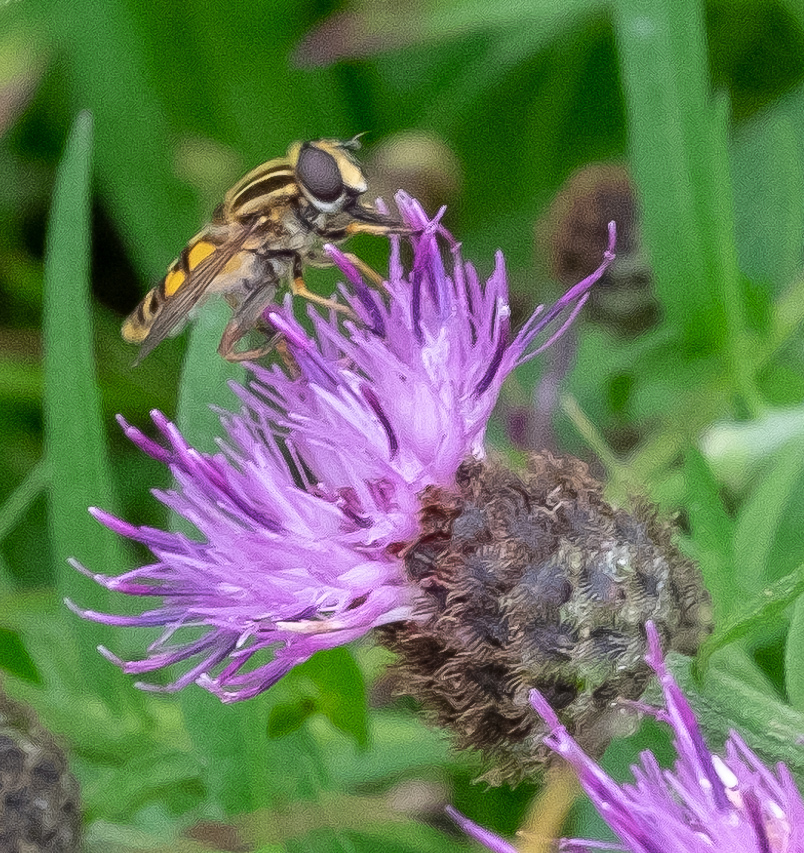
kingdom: Animalia
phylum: Arthropoda
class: Insecta
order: Diptera
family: Syrphidae
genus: Helophilus
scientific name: Helophilus pendulus
